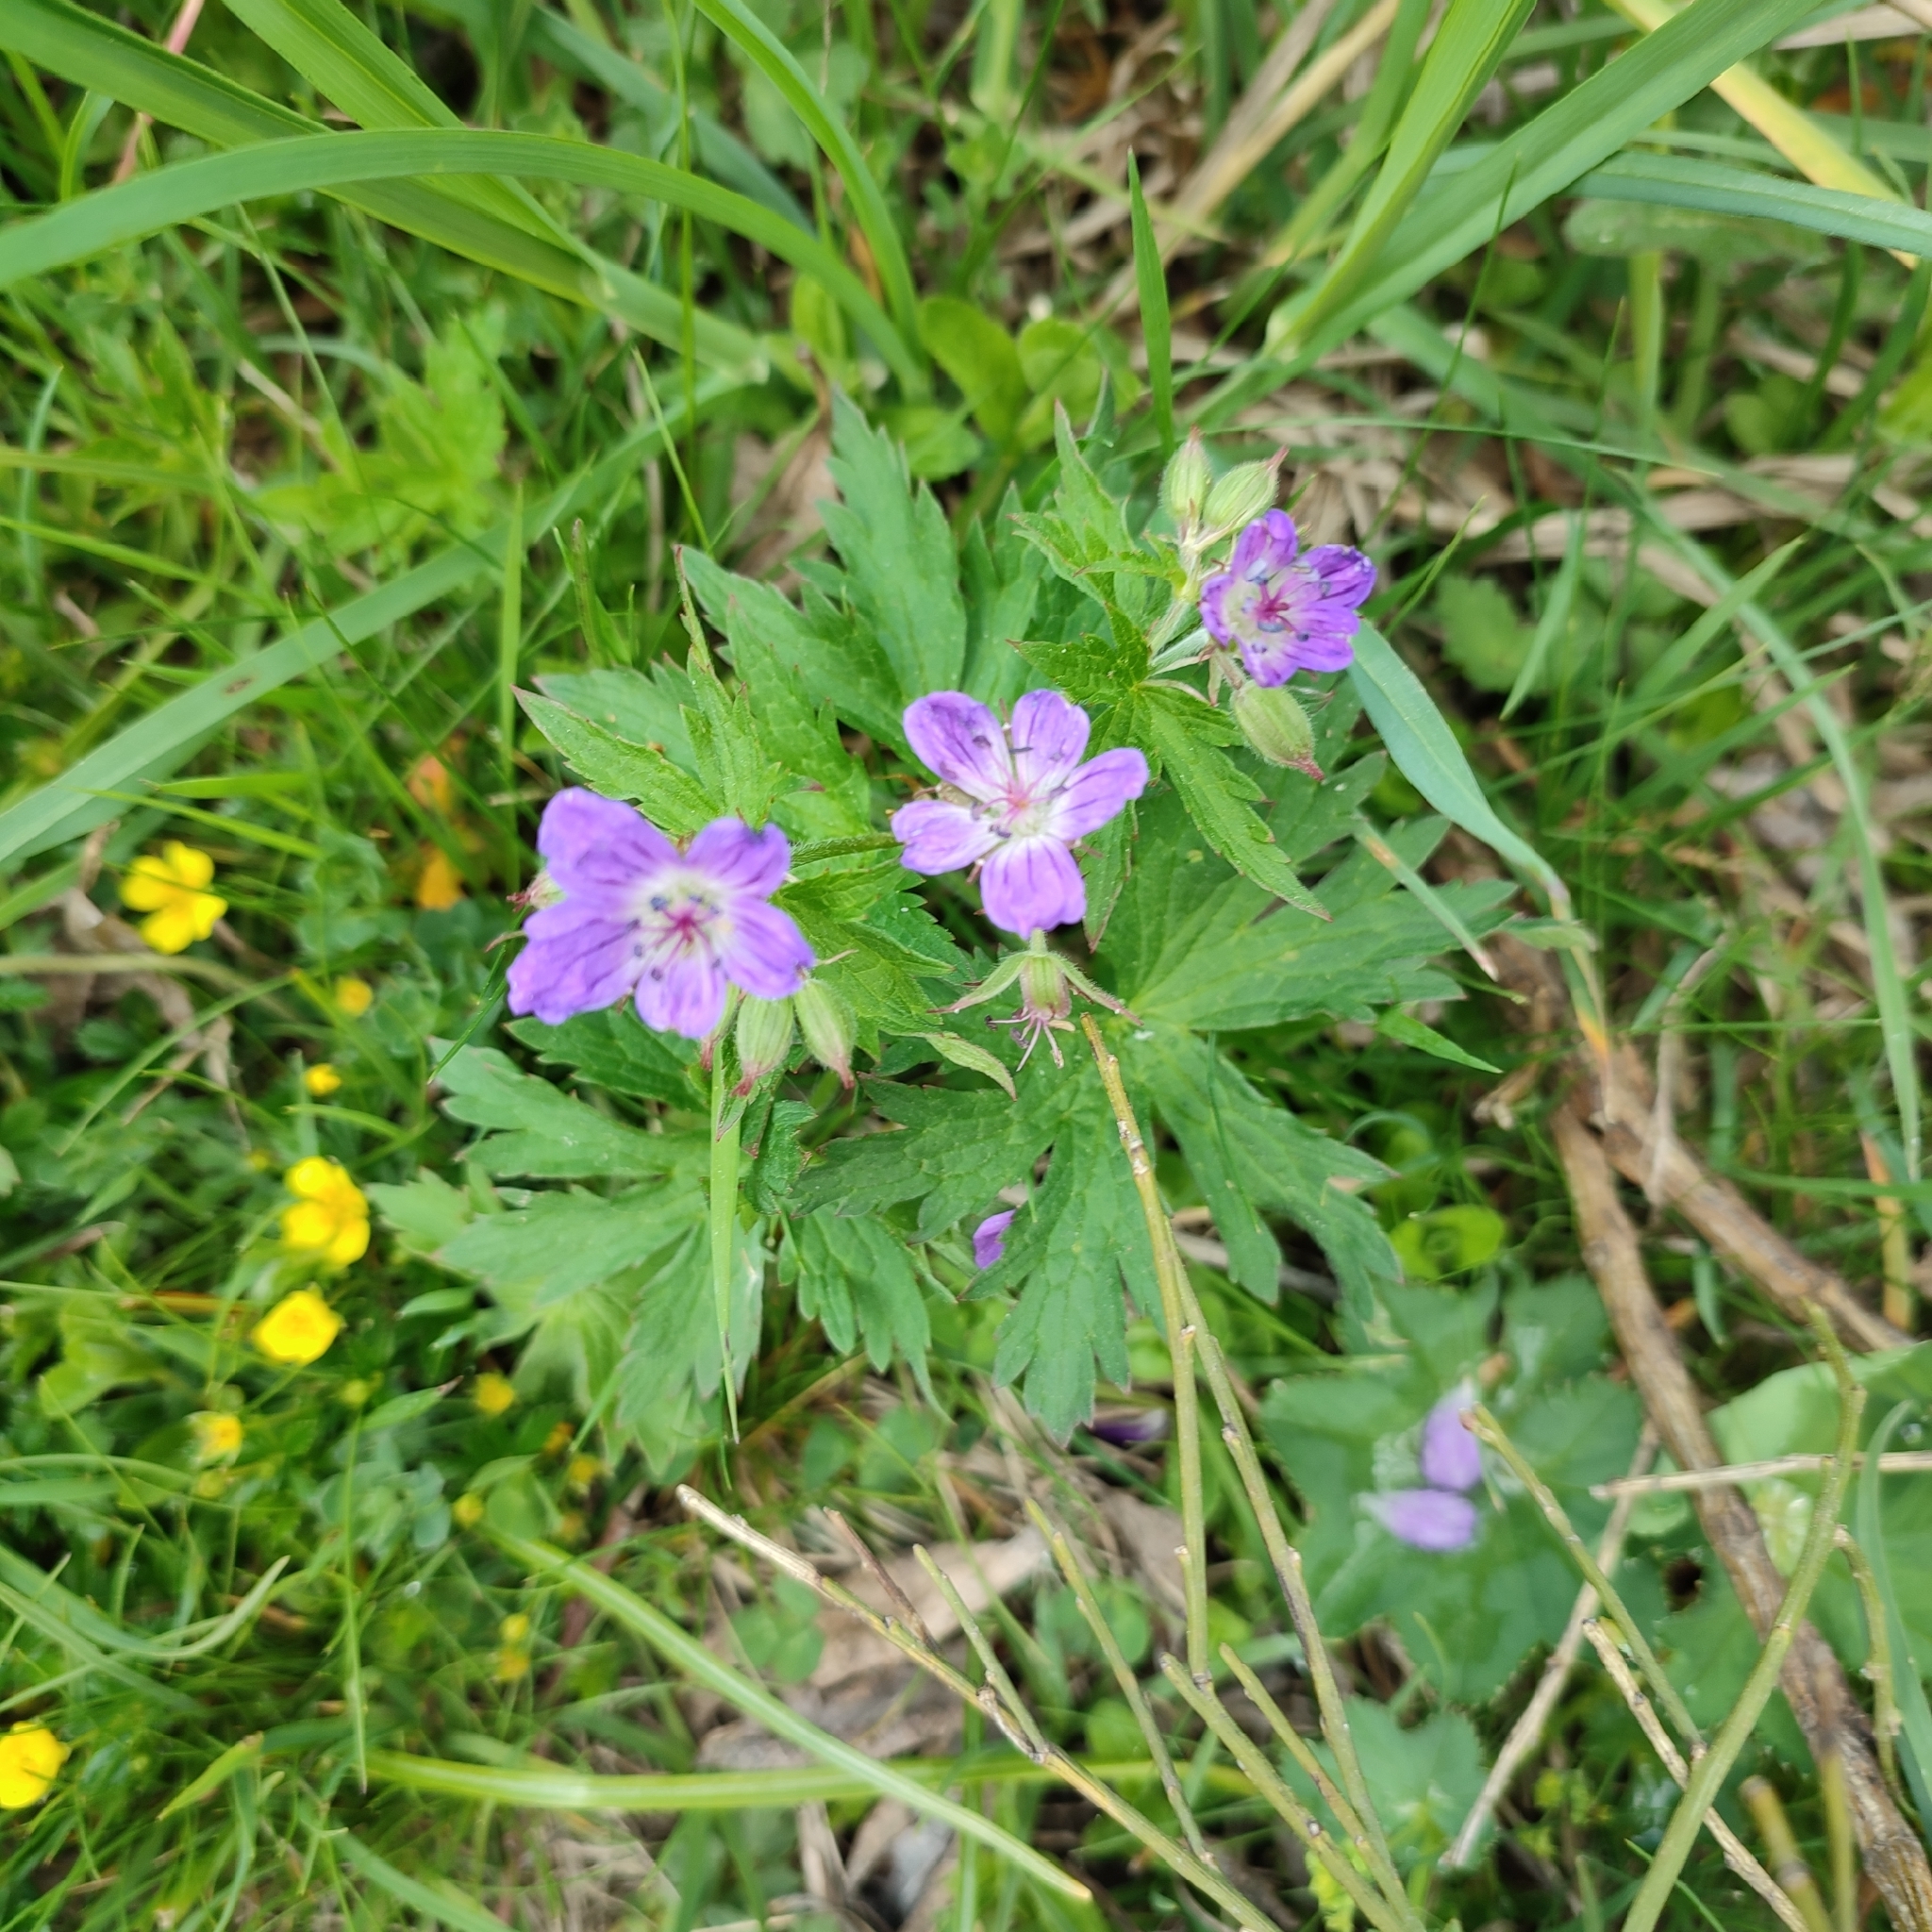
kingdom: Plantae
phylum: Tracheophyta
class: Magnoliopsida
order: Geraniales
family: Geraniaceae
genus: Geranium
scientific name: Geranium sylvaticum
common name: Wood crane's-bill
